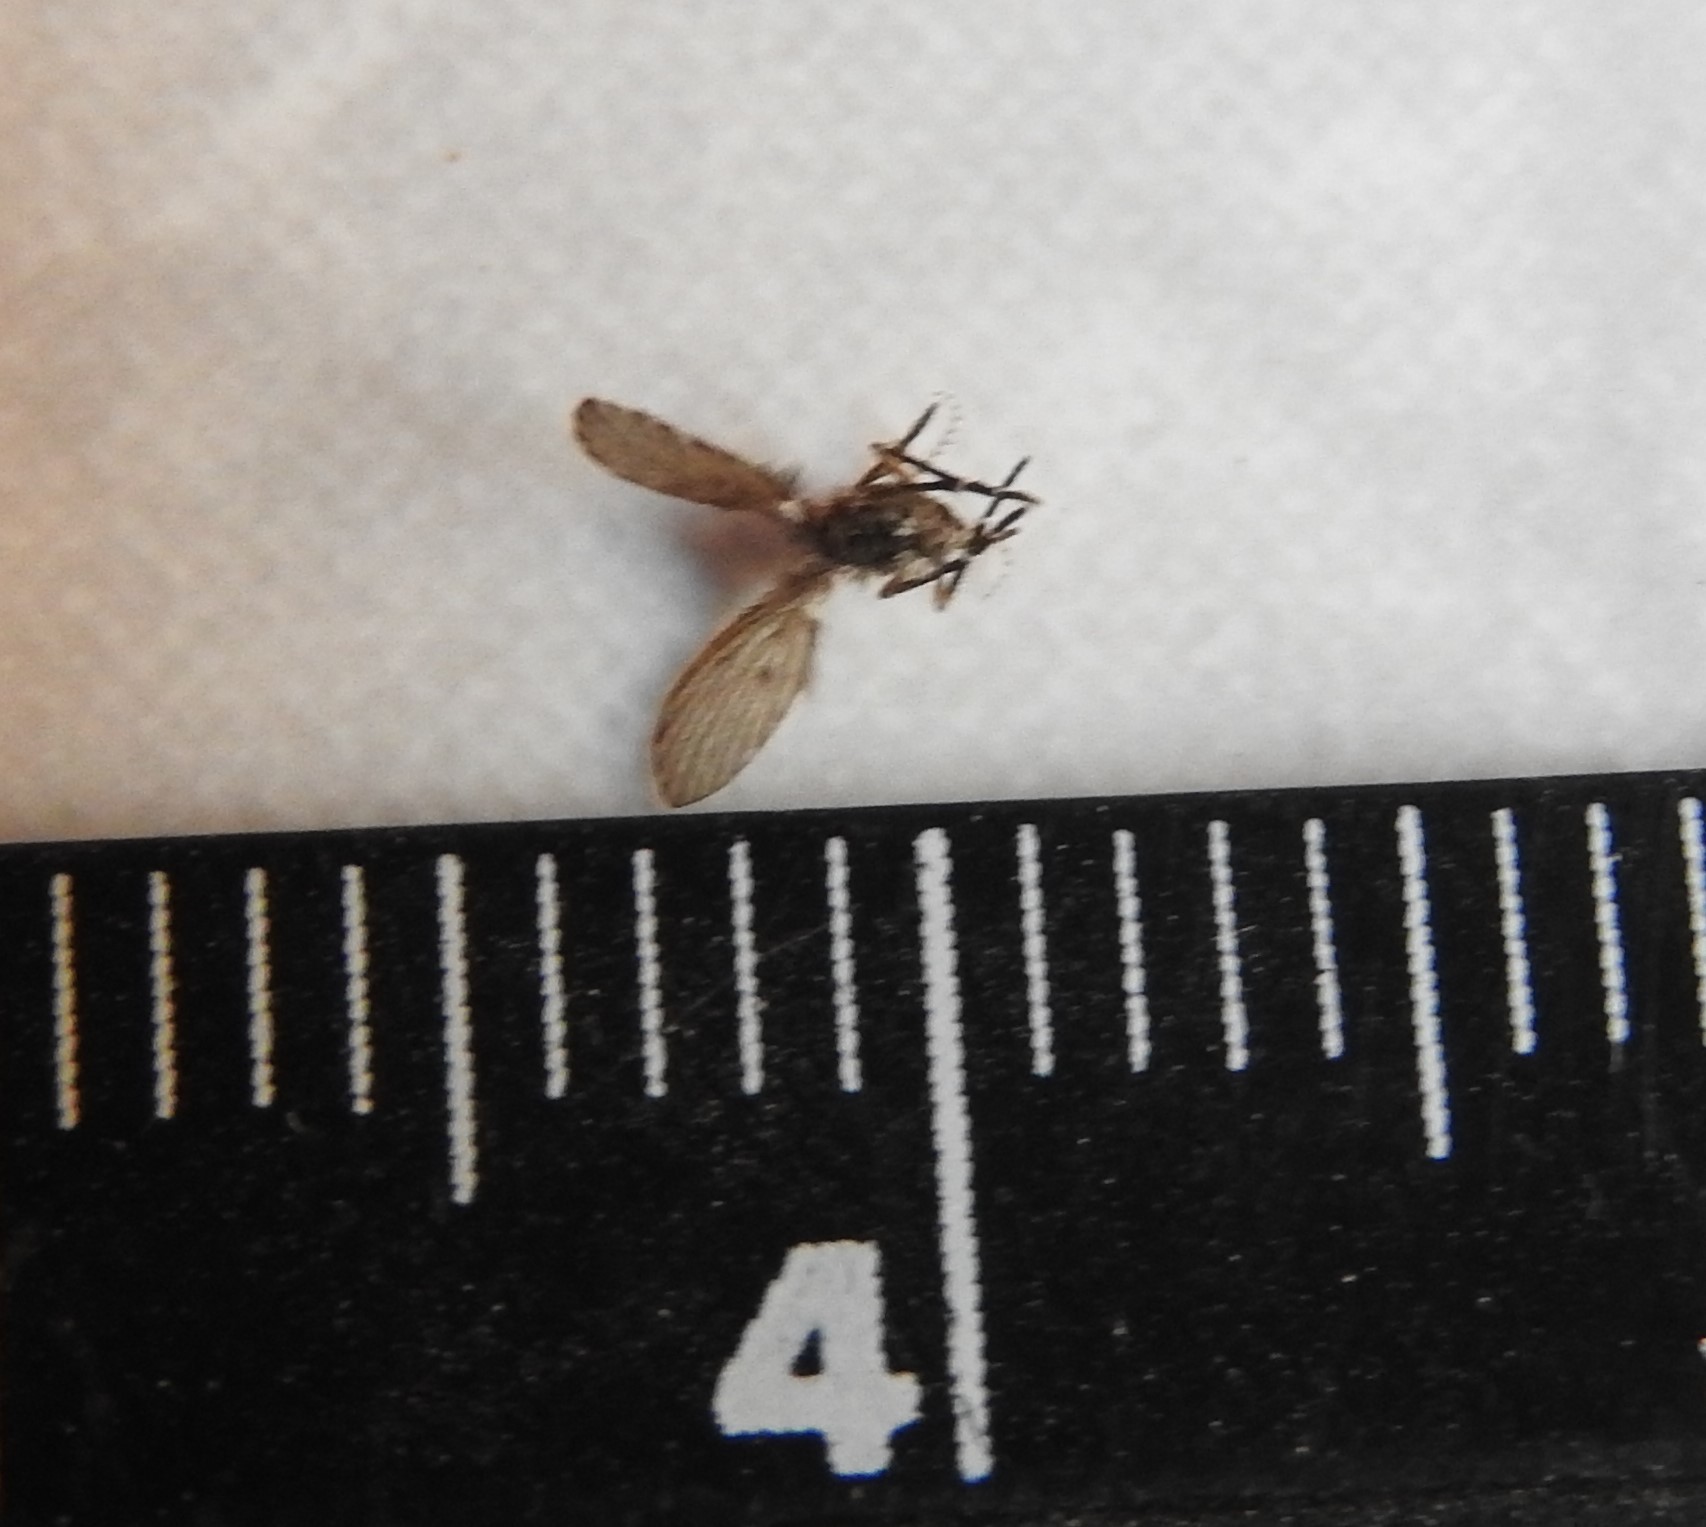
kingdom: Animalia
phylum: Arthropoda
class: Insecta
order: Diptera
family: Psychodidae
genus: Clogmia
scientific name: Clogmia albipunctatus
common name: White-spotted moth fly
